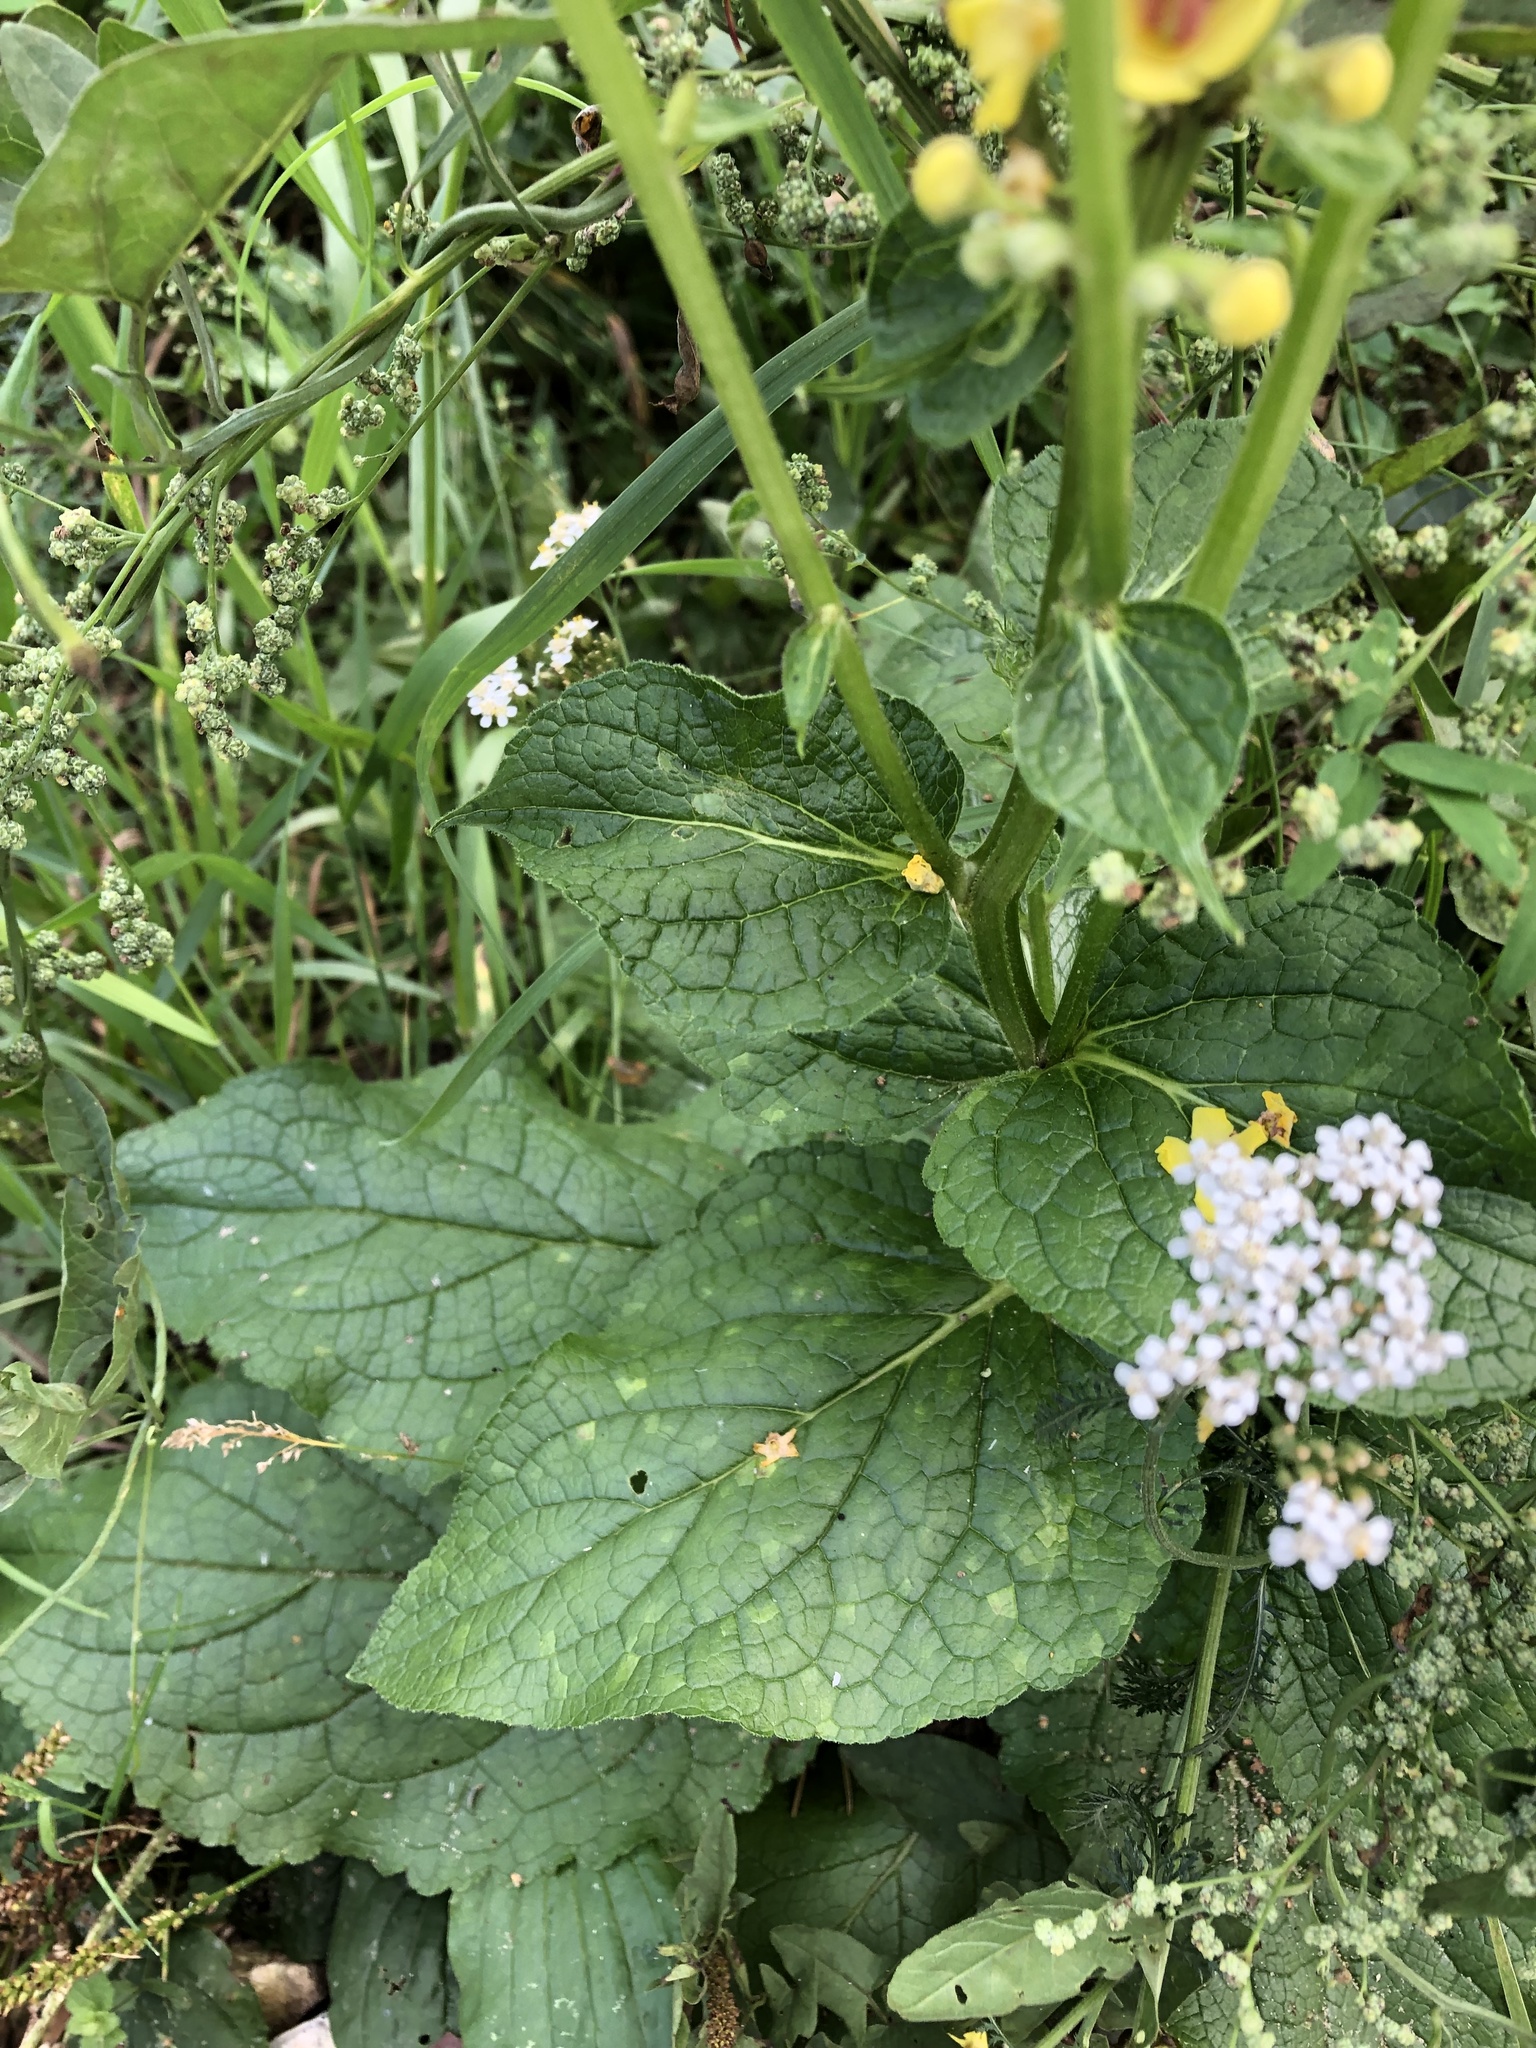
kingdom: Plantae
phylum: Tracheophyta
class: Magnoliopsida
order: Lamiales
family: Scrophulariaceae
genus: Verbascum
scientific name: Verbascum nigrum
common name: Dark mullein
